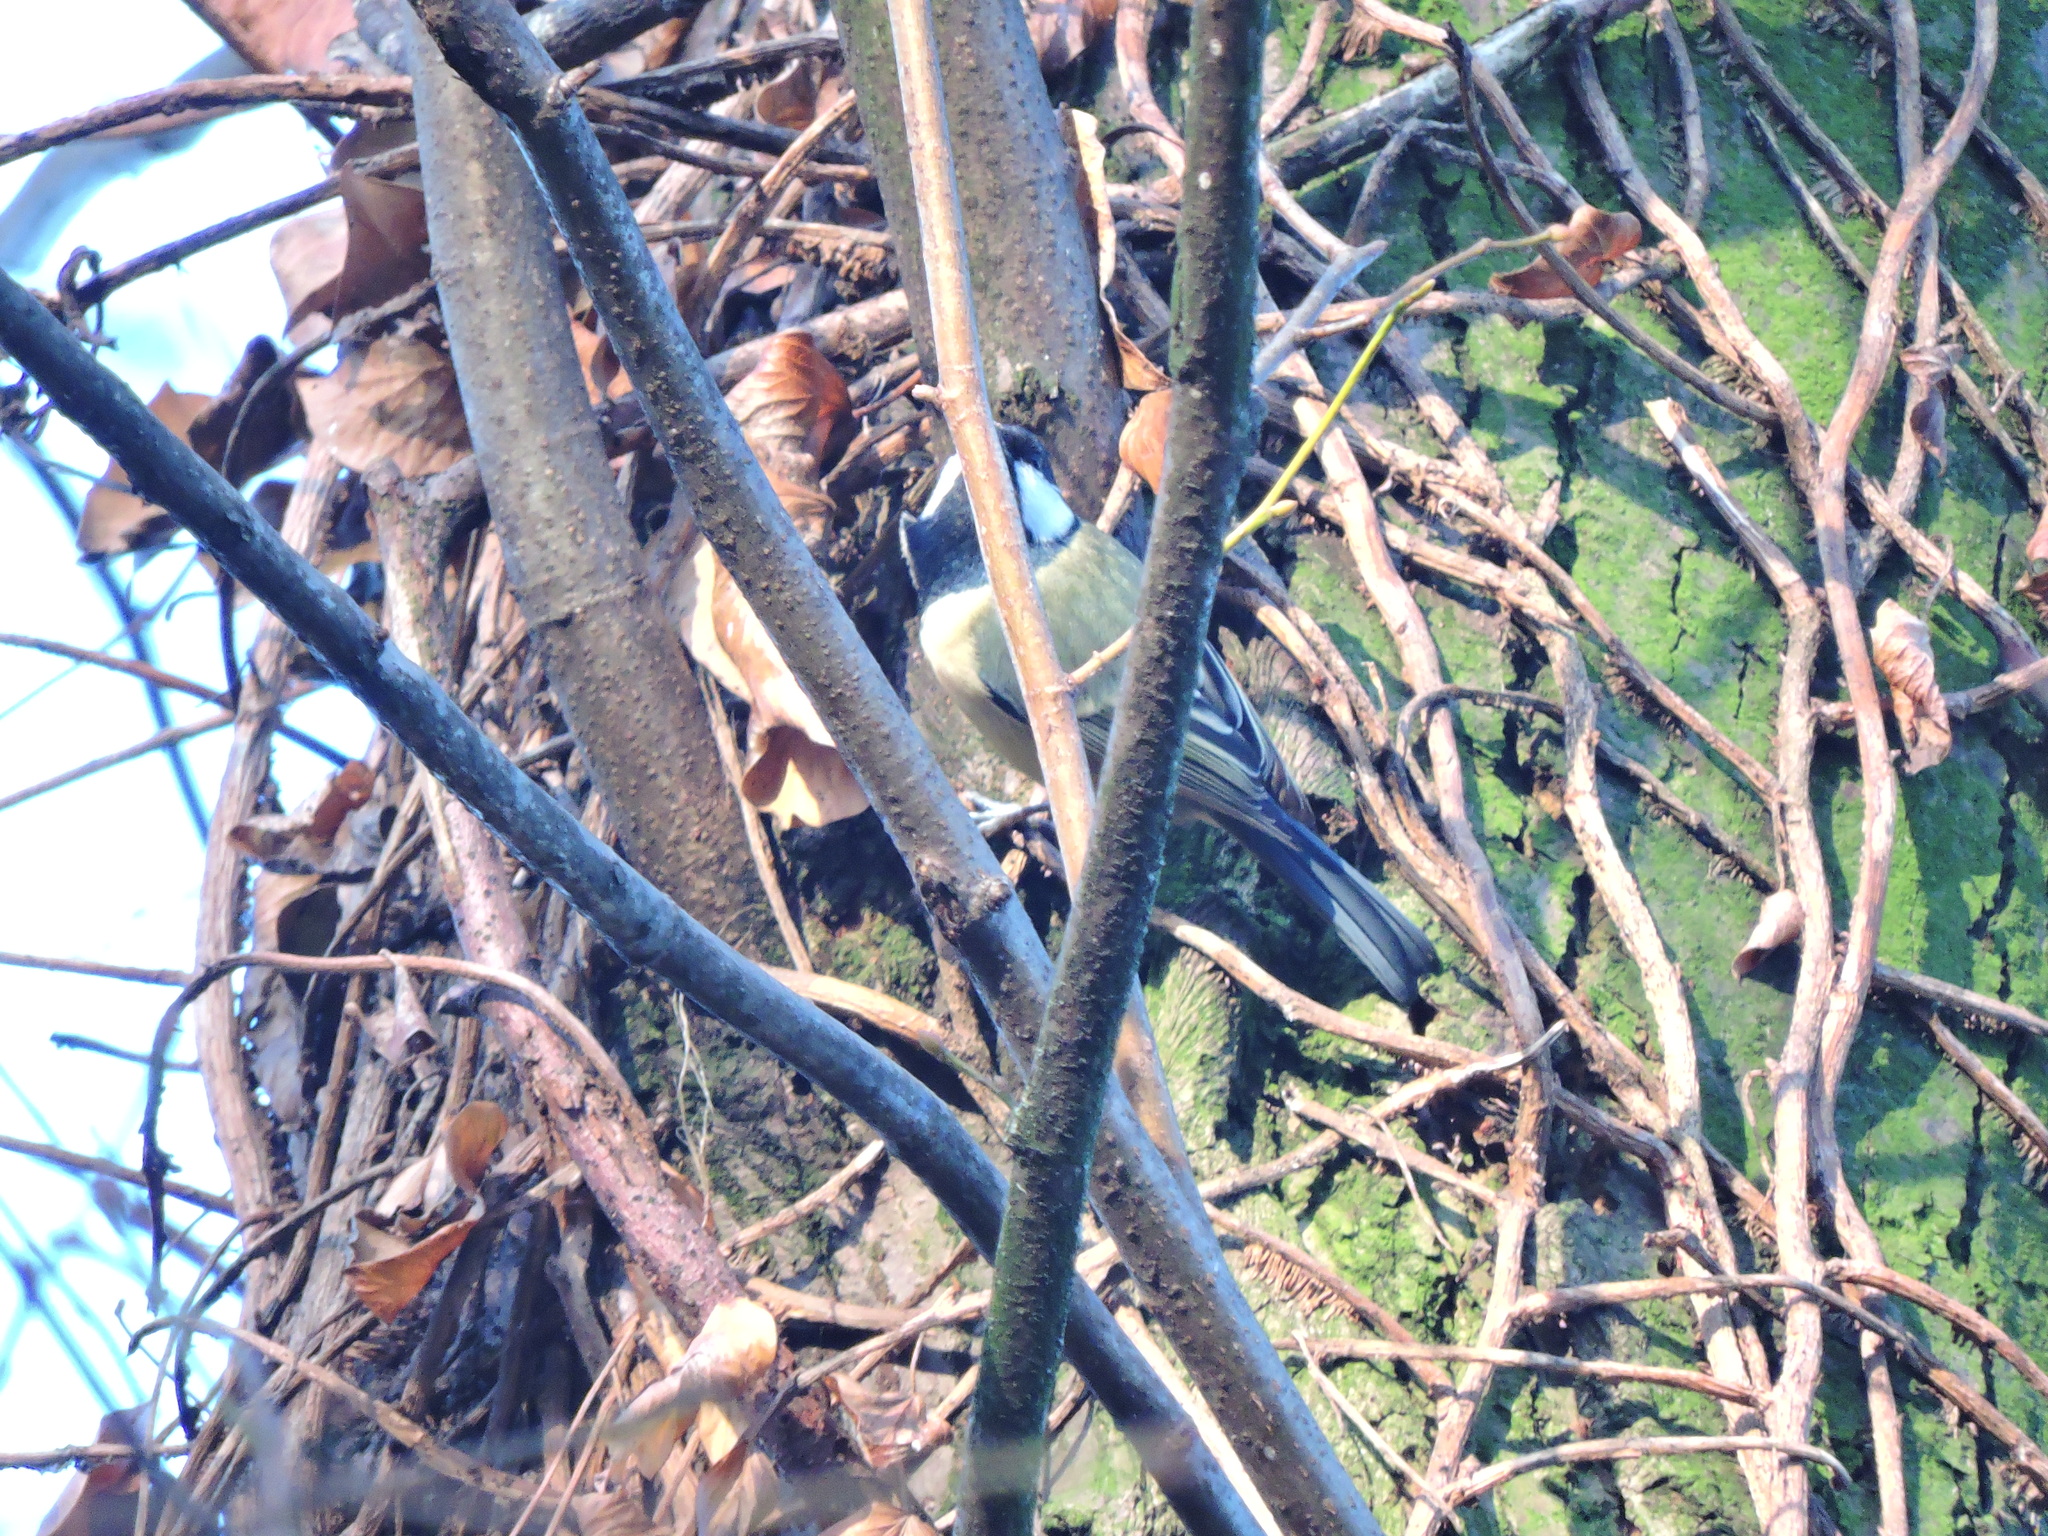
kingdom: Animalia
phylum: Chordata
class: Aves
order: Passeriformes
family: Paridae
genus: Parus
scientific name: Parus major
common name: Great tit
